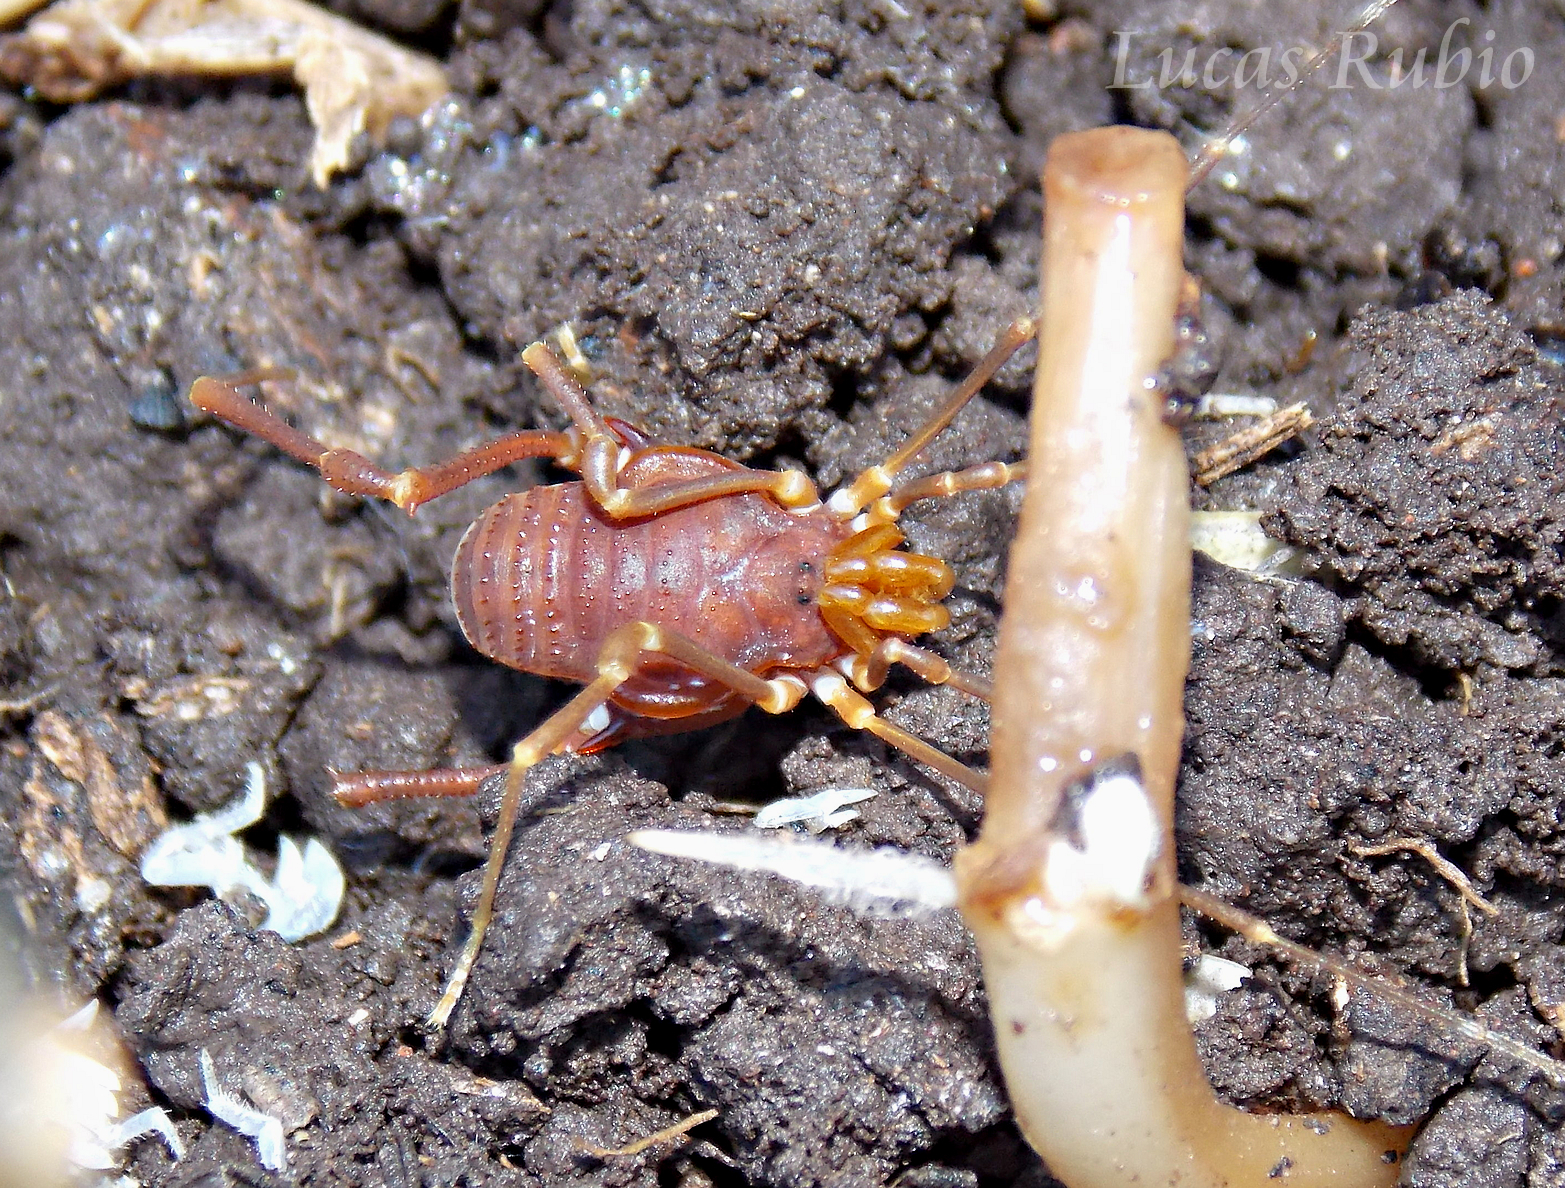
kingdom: Animalia
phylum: Arthropoda
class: Arachnida
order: Opiliones
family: Gonyleptidae
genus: Pachyloides
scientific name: Pachyloides thorellii
